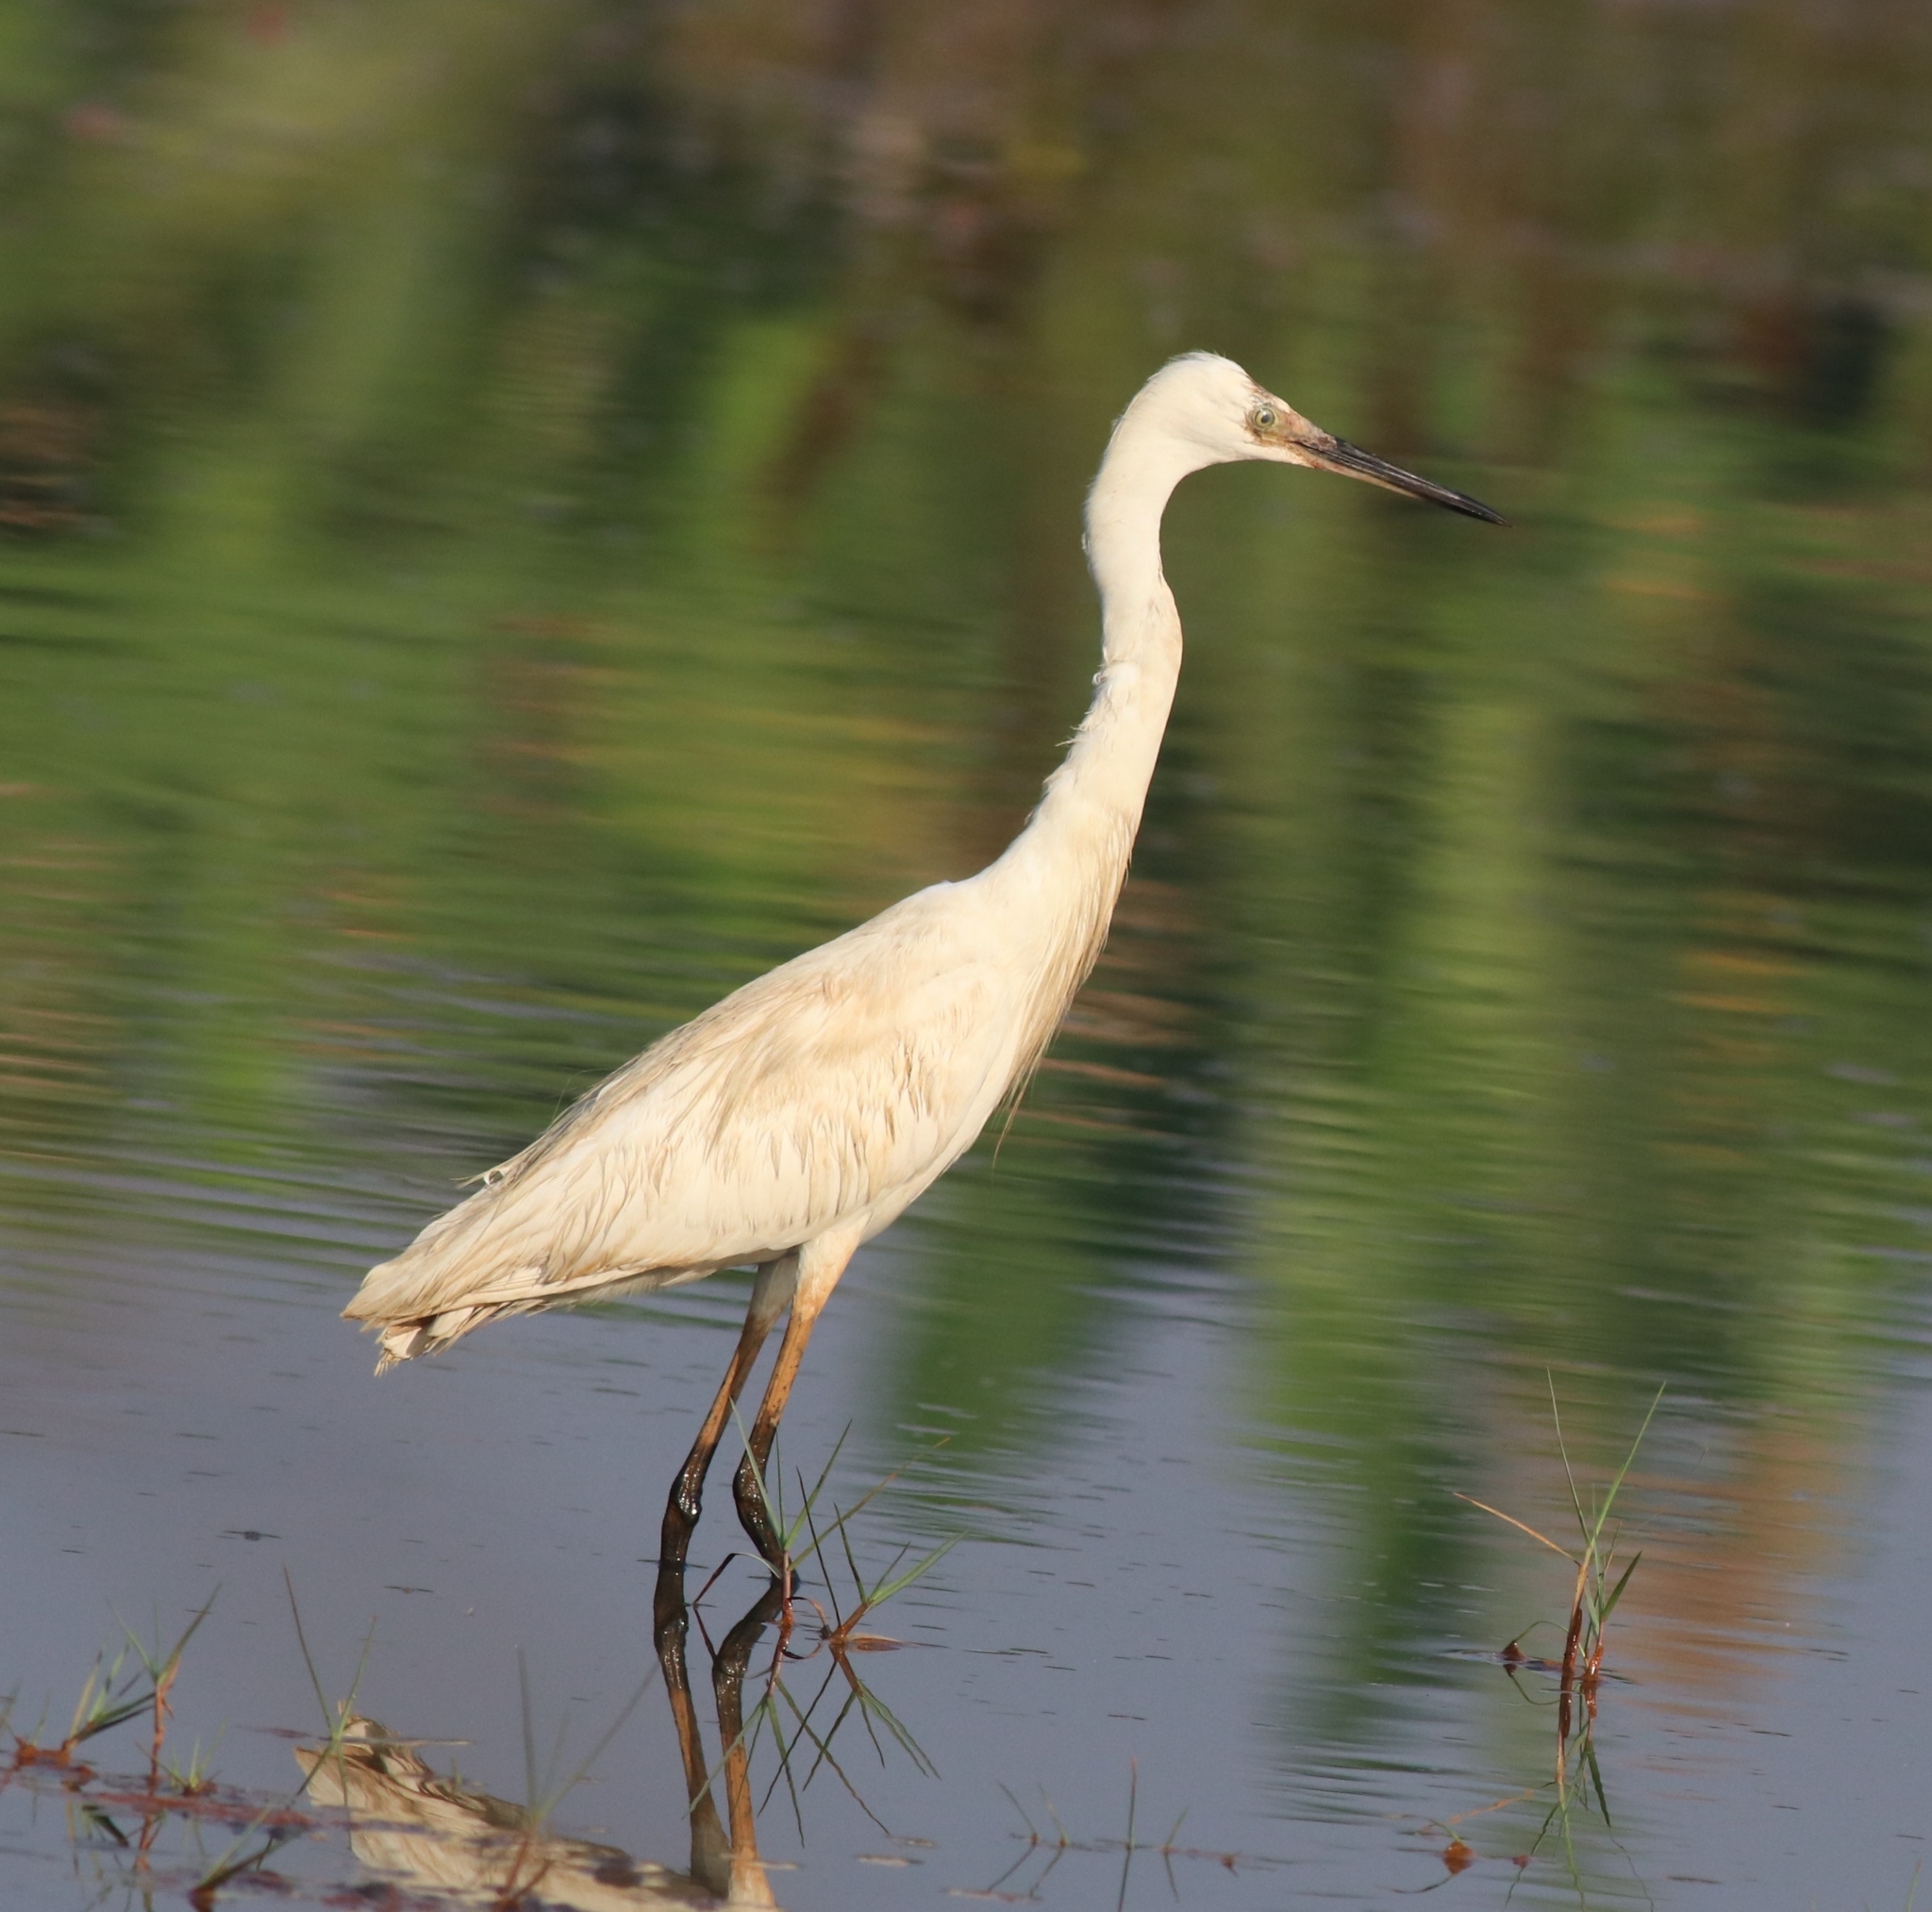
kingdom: Animalia
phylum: Chordata
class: Aves
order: Pelecaniformes
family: Ardeidae
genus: Egretta
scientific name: Egretta garzetta
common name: Little egret
